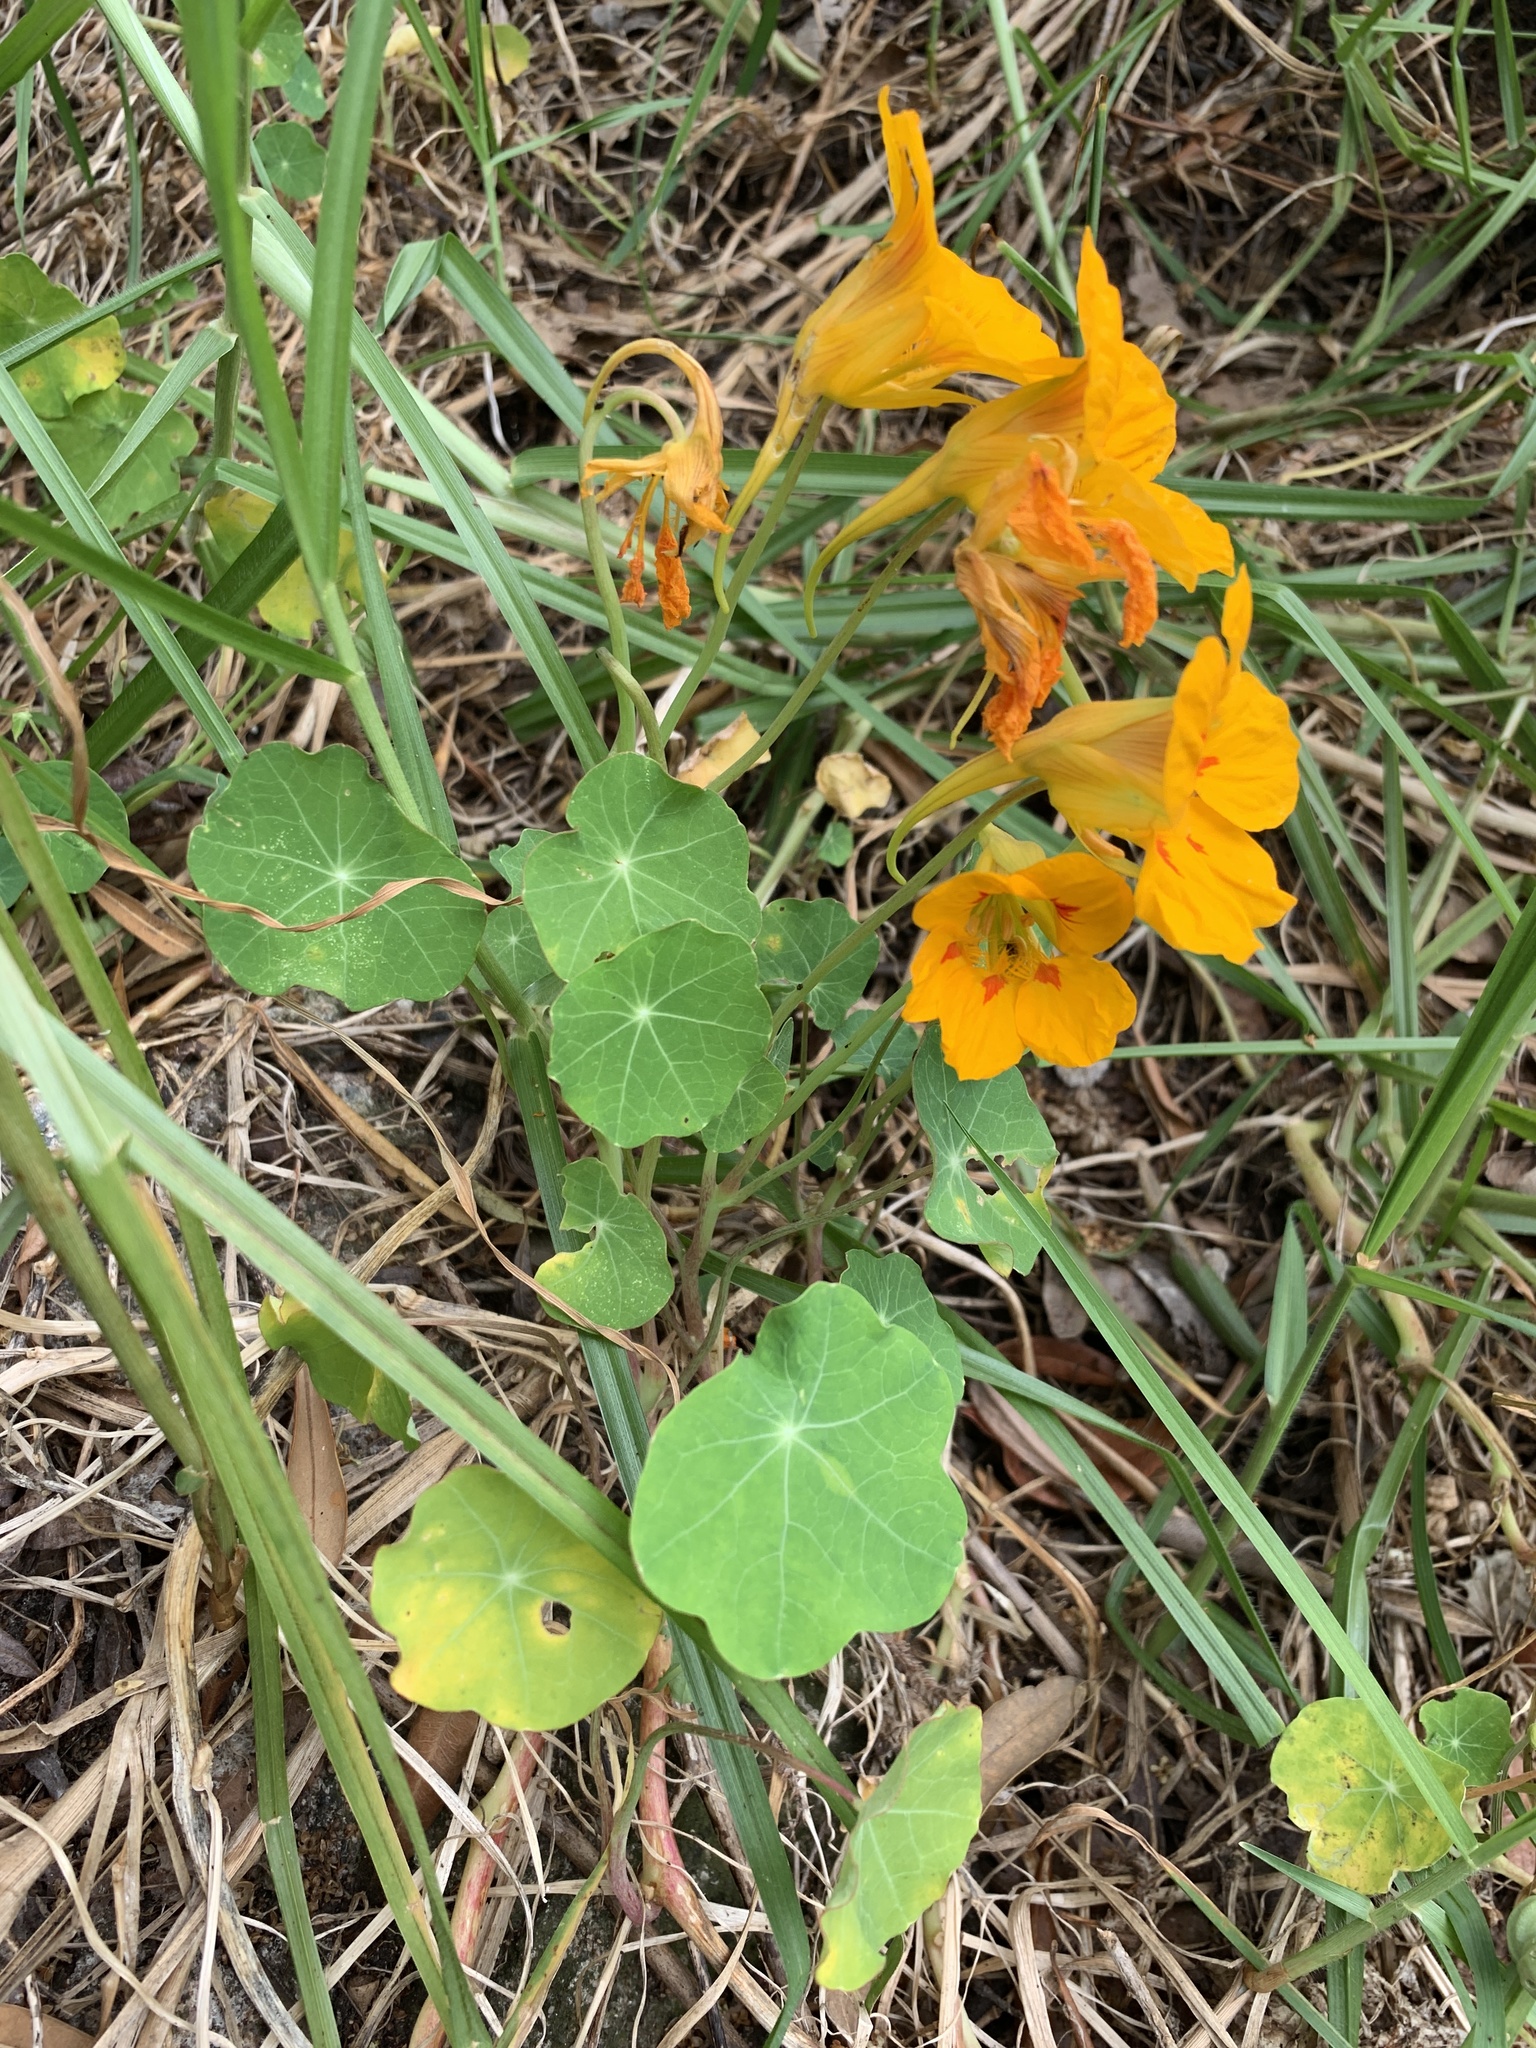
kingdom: Plantae
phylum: Tracheophyta
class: Magnoliopsida
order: Brassicales
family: Tropaeolaceae
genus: Tropaeolum
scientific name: Tropaeolum majus
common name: Nasturtium
